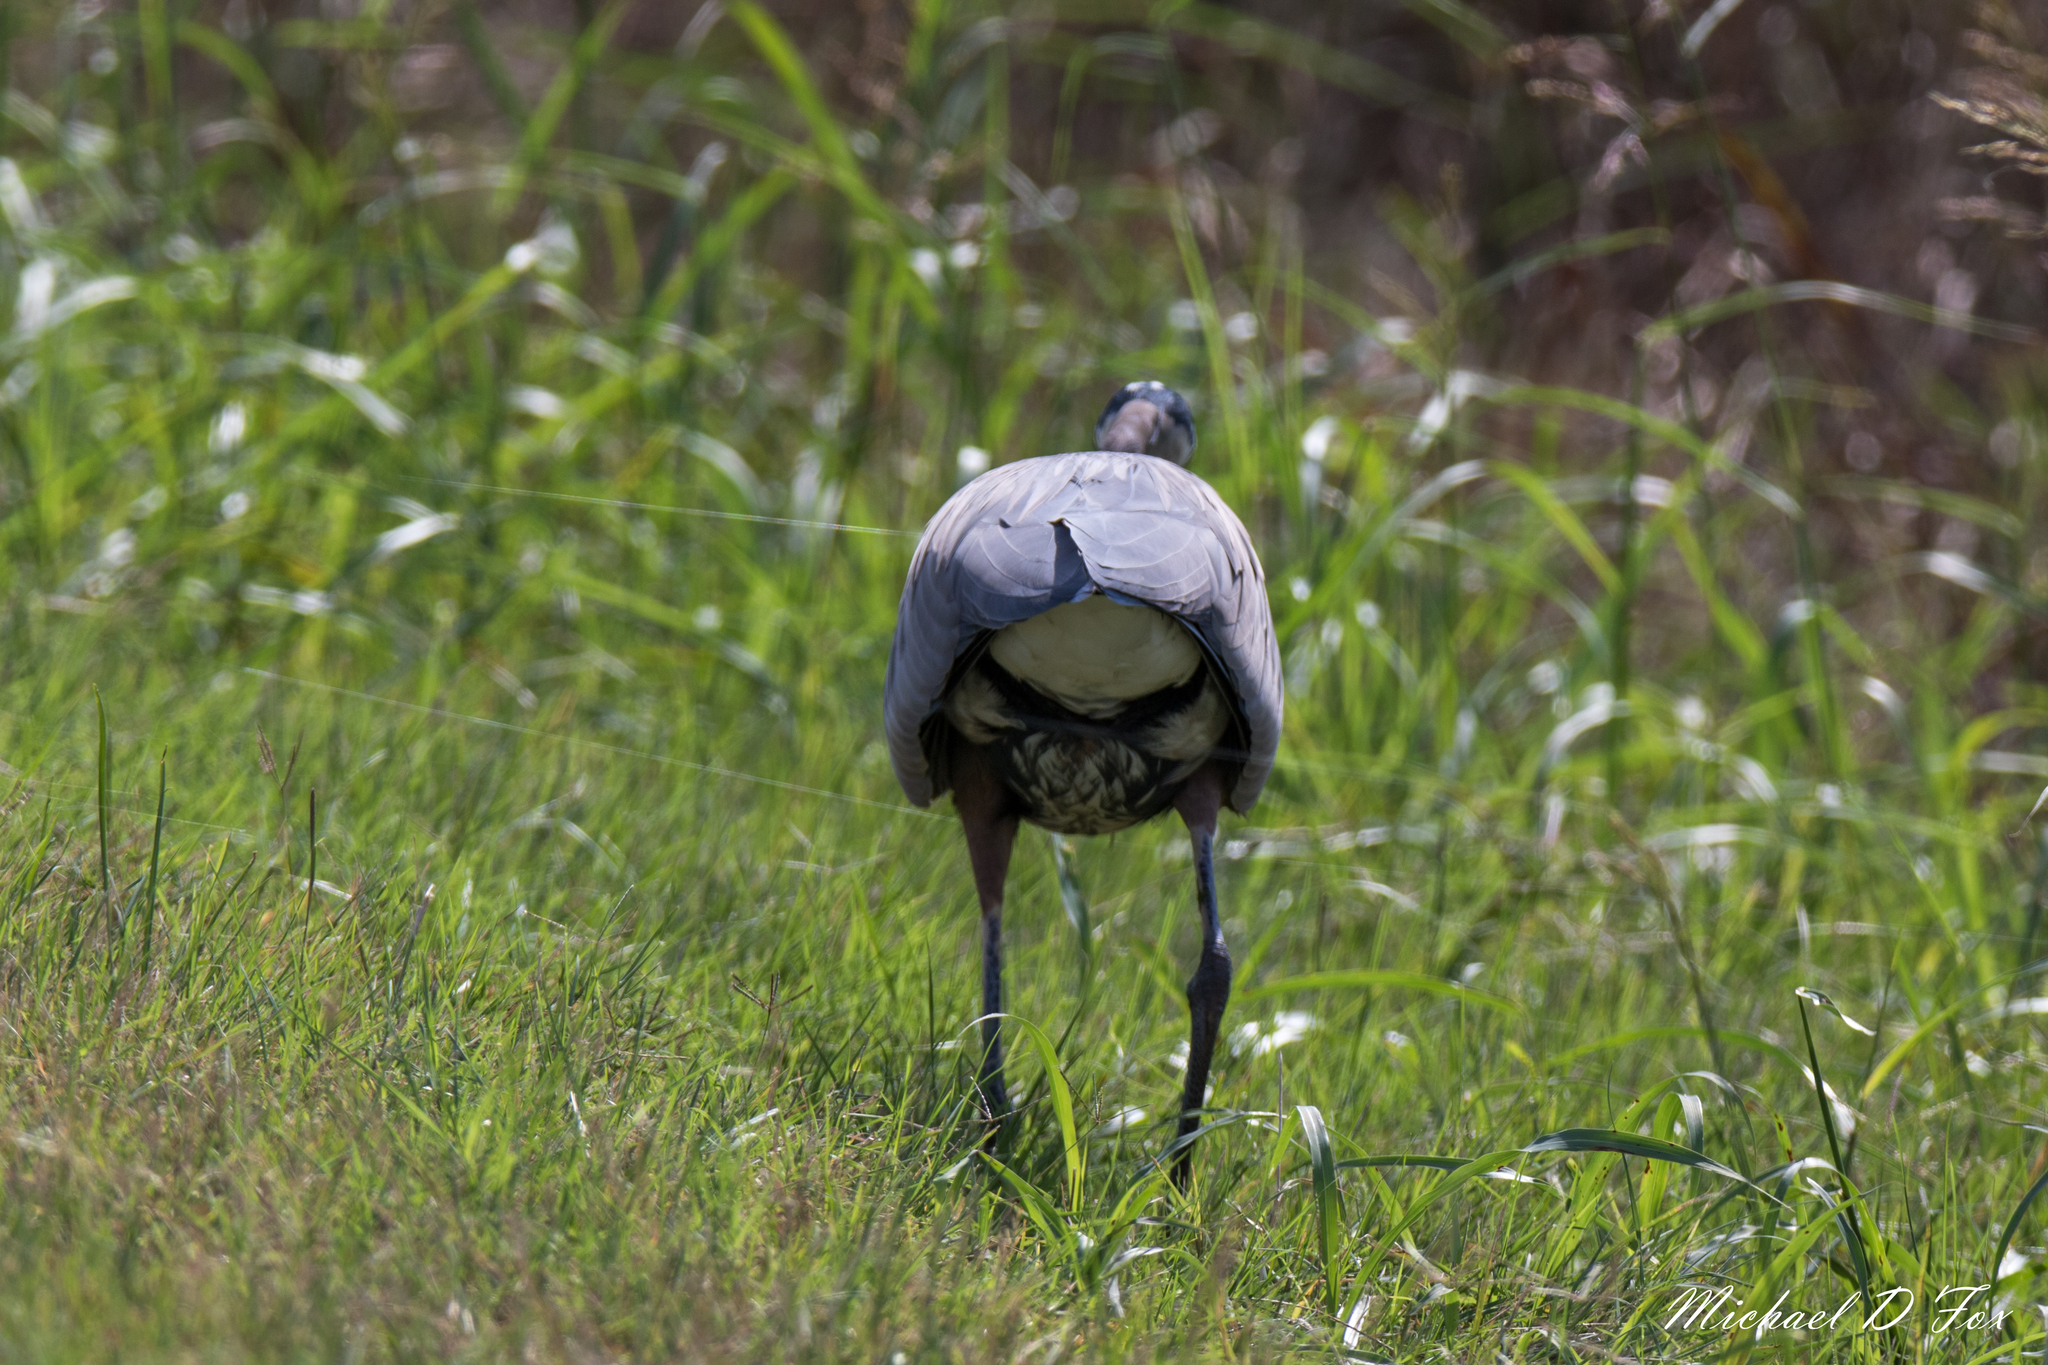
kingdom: Animalia
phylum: Chordata
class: Aves
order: Pelecaniformes
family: Ardeidae
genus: Ardea
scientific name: Ardea herodias
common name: Great blue heron
